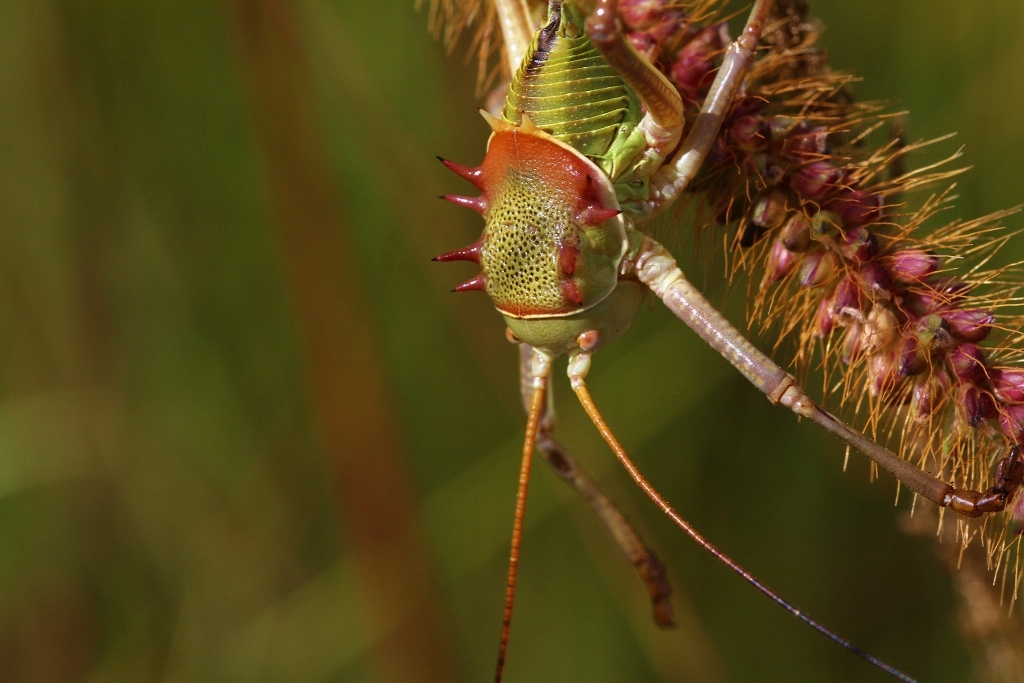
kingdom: Animalia
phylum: Arthropoda
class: Insecta
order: Orthoptera
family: Tettigoniidae
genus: Acanthoplus
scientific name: Acanthoplus speiseri
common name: Speiser's armoured katydid
